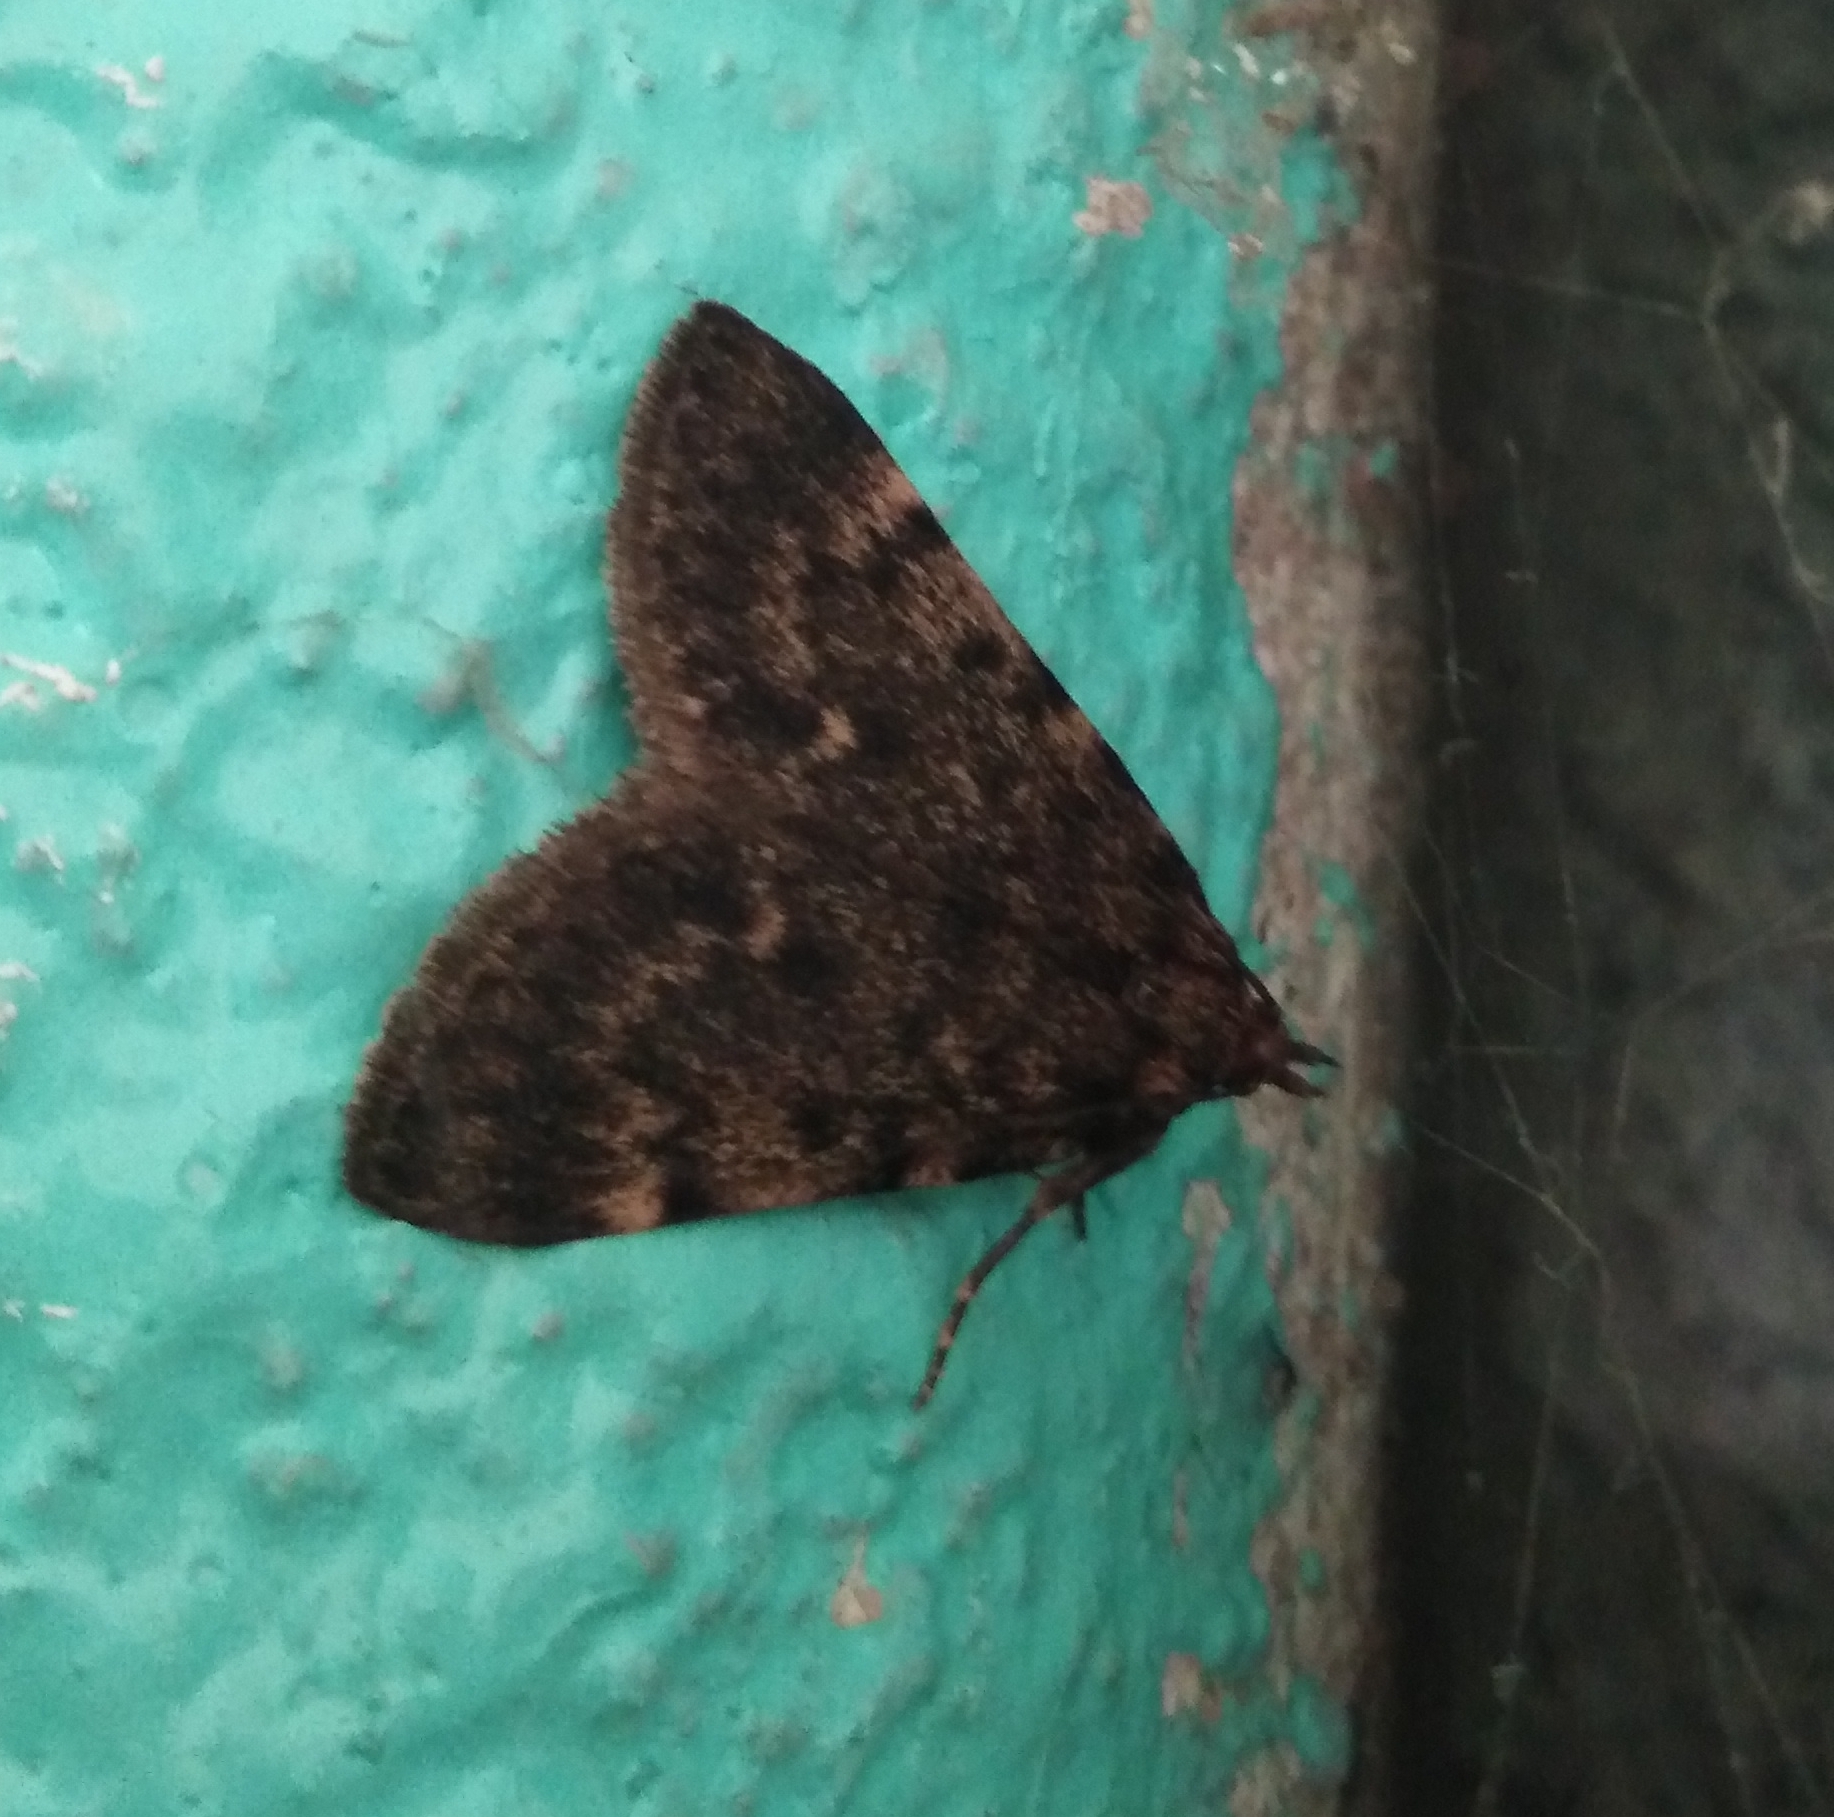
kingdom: Animalia
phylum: Arthropoda
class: Insecta
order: Lepidoptera
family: Pyralidae
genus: Aglossa
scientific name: Aglossa pinguinalis
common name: Large tabby
